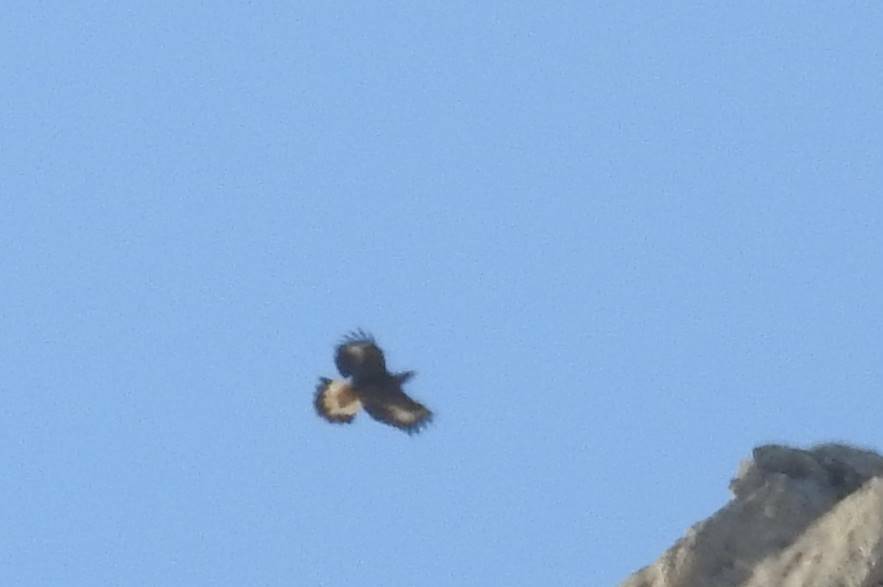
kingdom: Animalia
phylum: Chordata
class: Aves
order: Accipitriformes
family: Accipitridae
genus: Aquila
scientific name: Aquila chrysaetos
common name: Golden eagle
